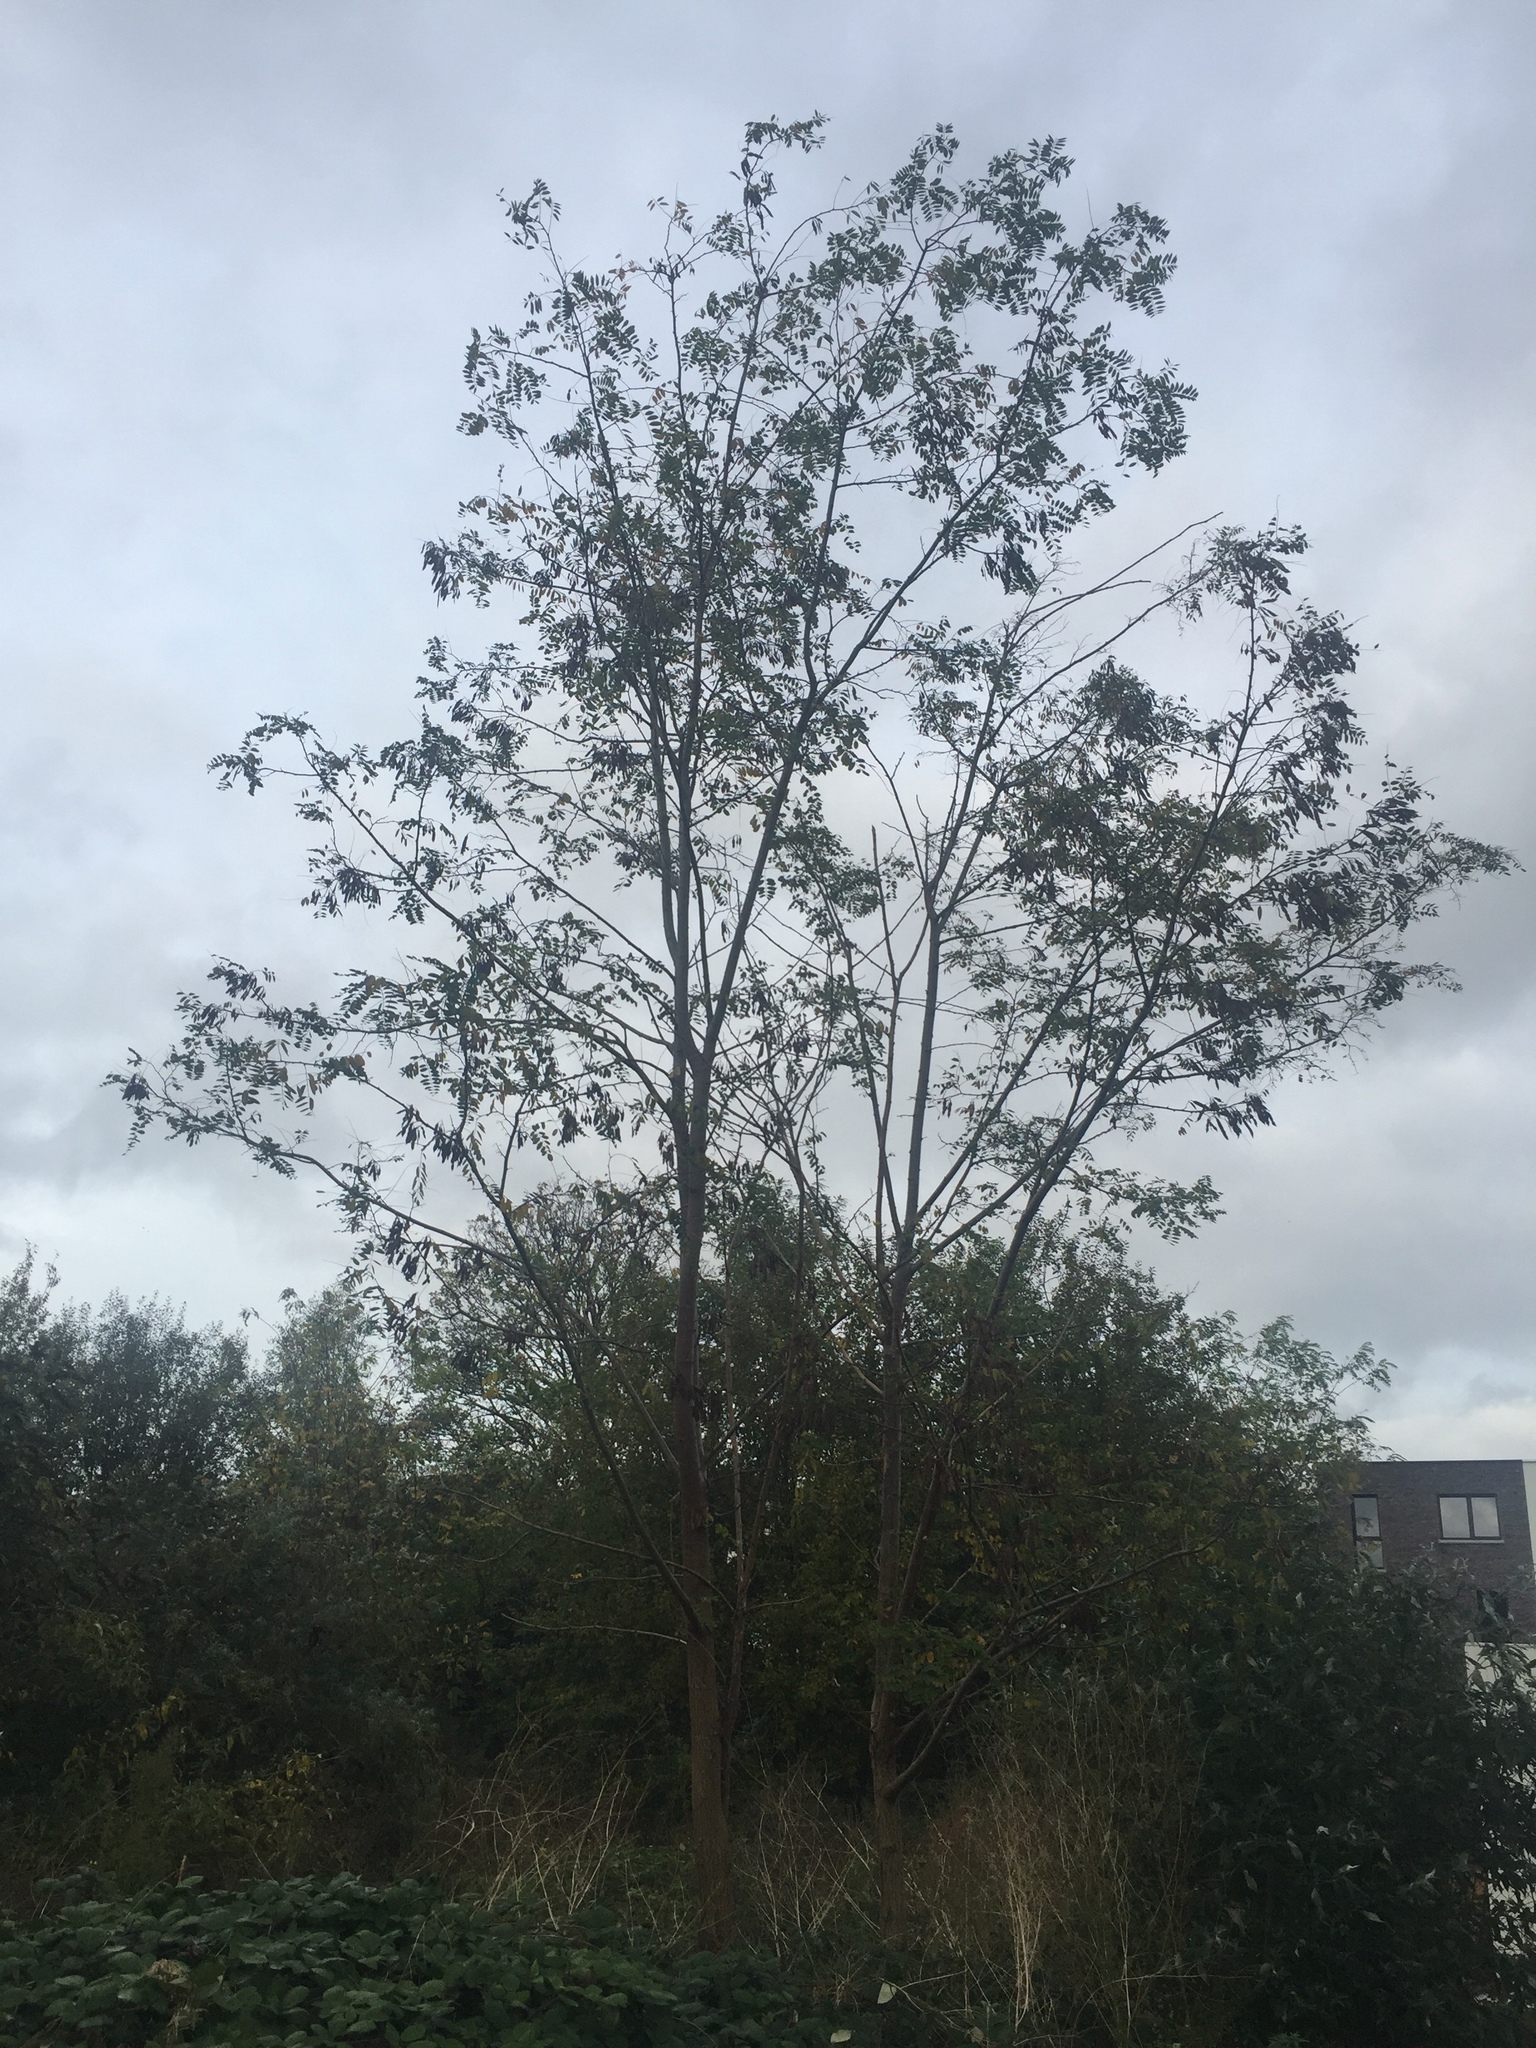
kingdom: Plantae
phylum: Tracheophyta
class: Magnoliopsida
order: Fabales
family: Fabaceae
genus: Robinia
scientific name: Robinia pseudoacacia
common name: Black locust
